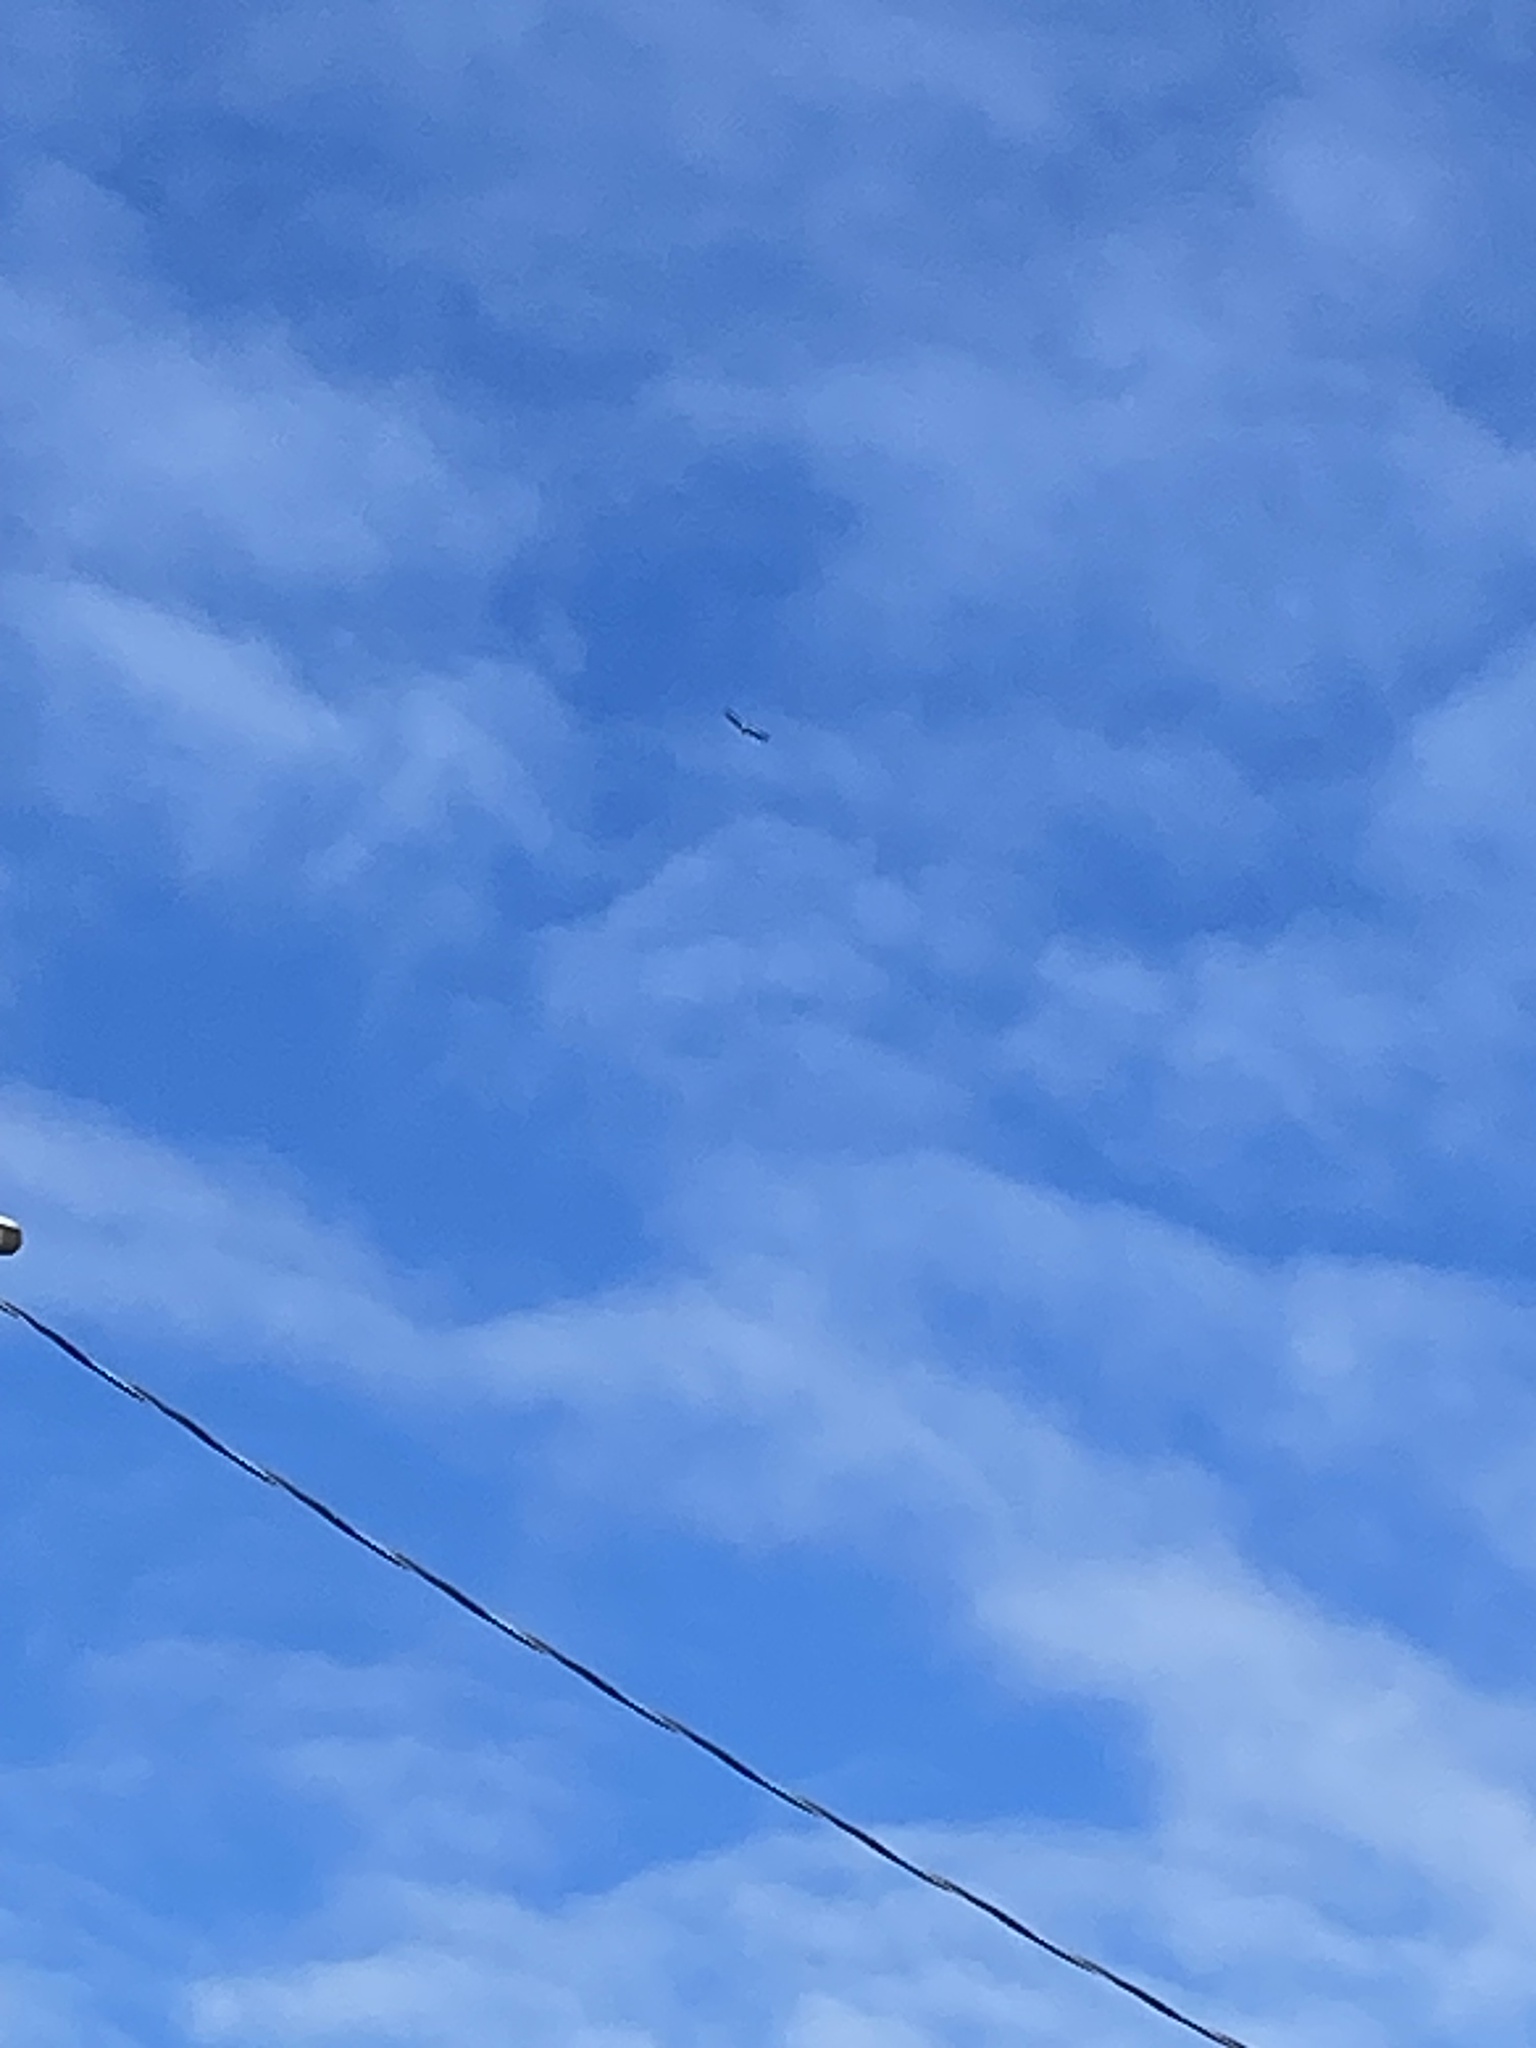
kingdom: Animalia
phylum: Chordata
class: Aves
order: Accipitriformes
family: Accipitridae
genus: Haliaeetus
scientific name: Haliaeetus leucocephalus
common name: Bald eagle
